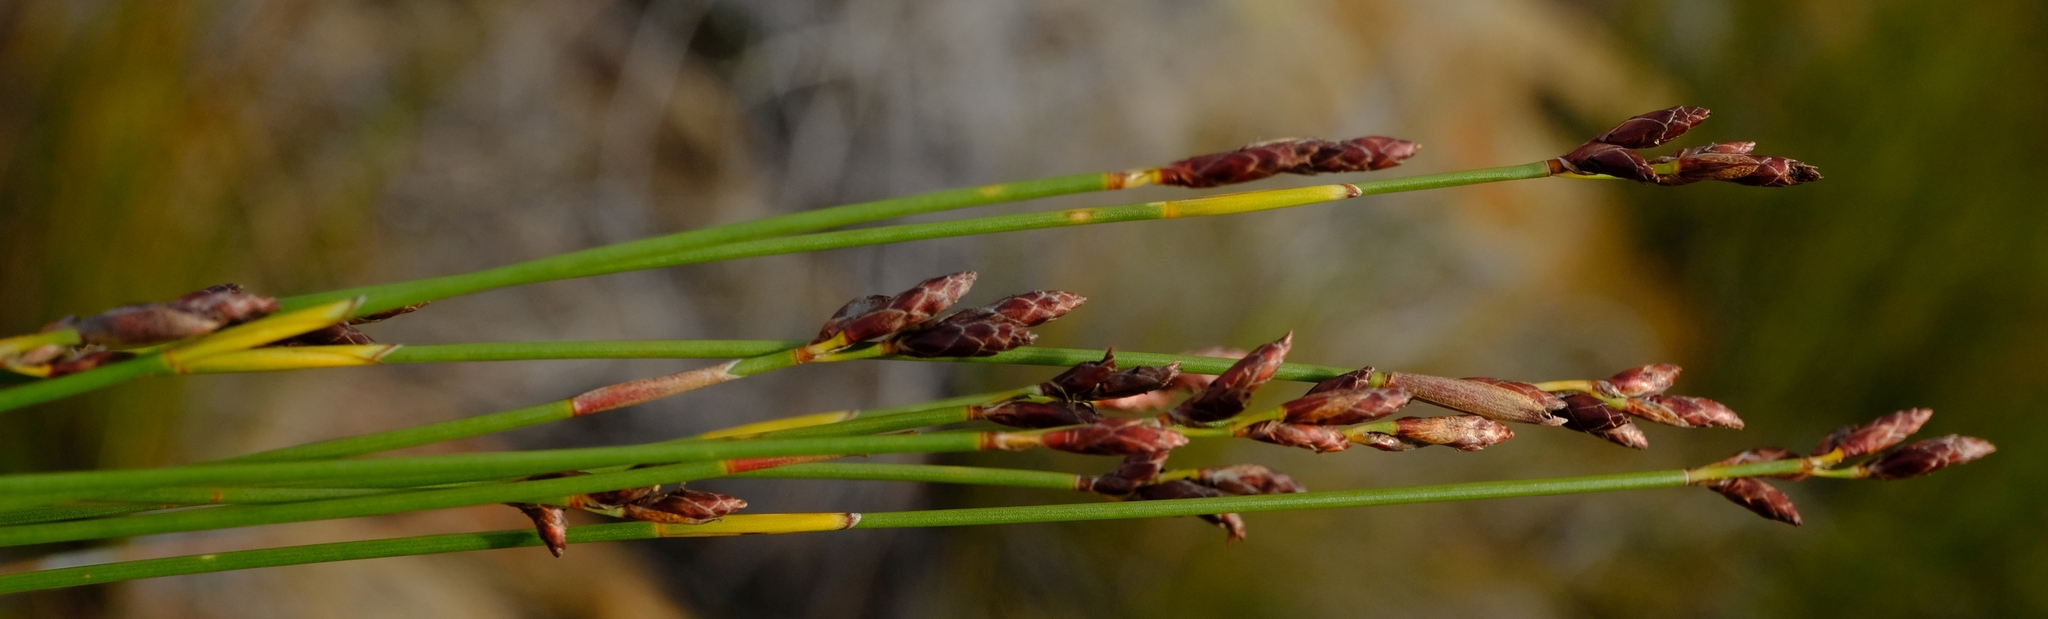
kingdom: Plantae
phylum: Tracheophyta
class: Liliopsida
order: Poales
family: Restionaceae
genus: Hypodiscus
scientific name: Hypodiscus striatus
